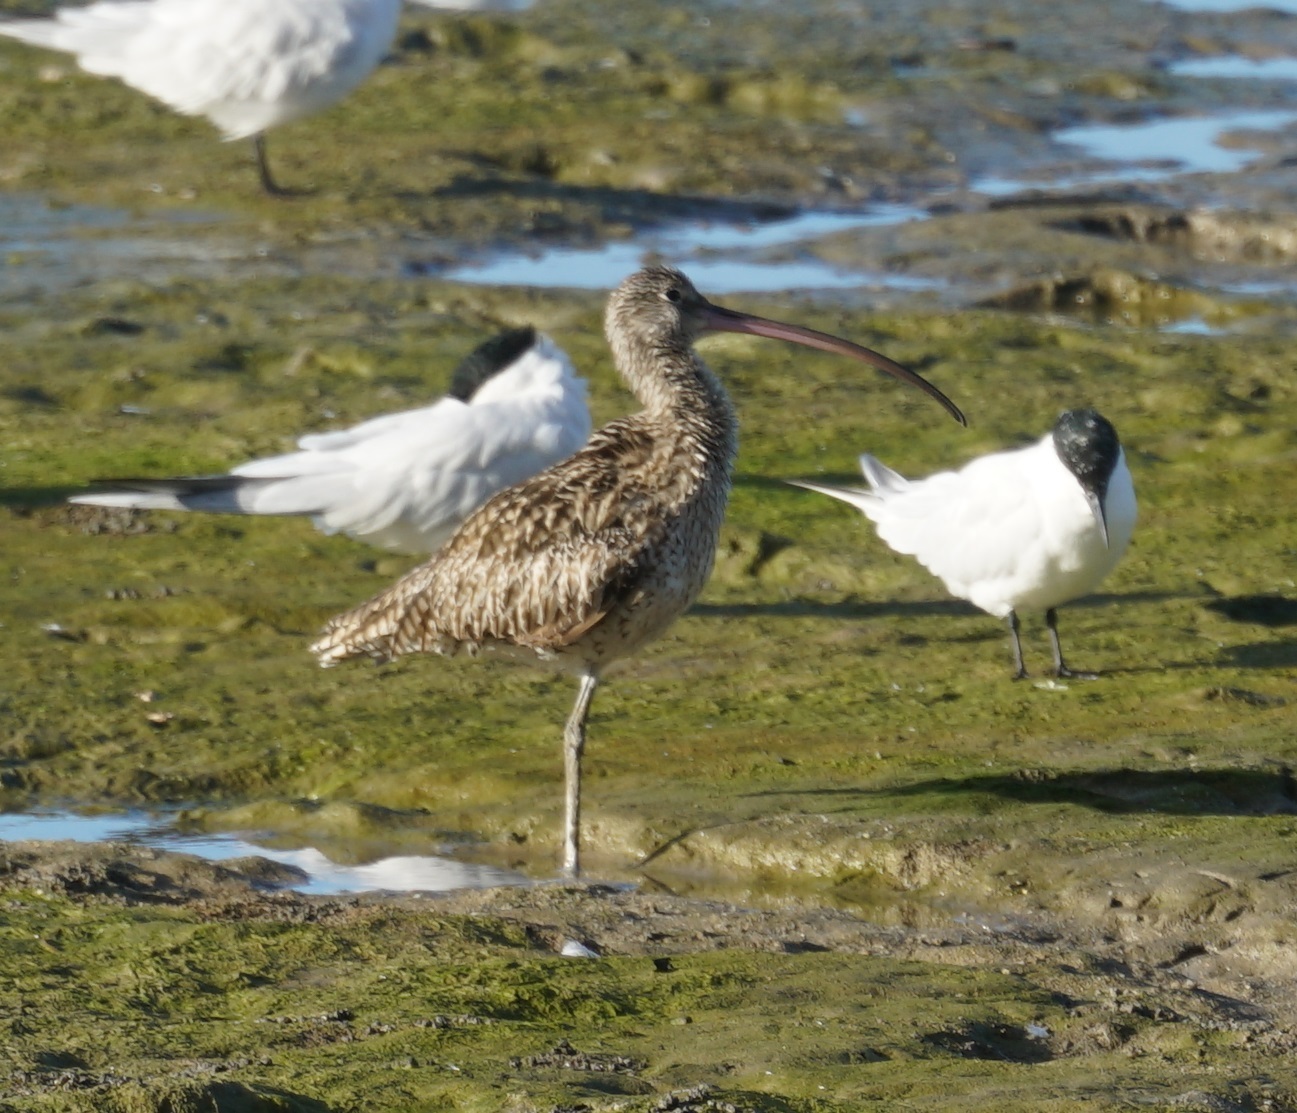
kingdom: Animalia
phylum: Chordata
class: Aves
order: Charadriiformes
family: Scolopacidae
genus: Numenius
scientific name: Numenius madagascariensis
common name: Far eastern curlew
